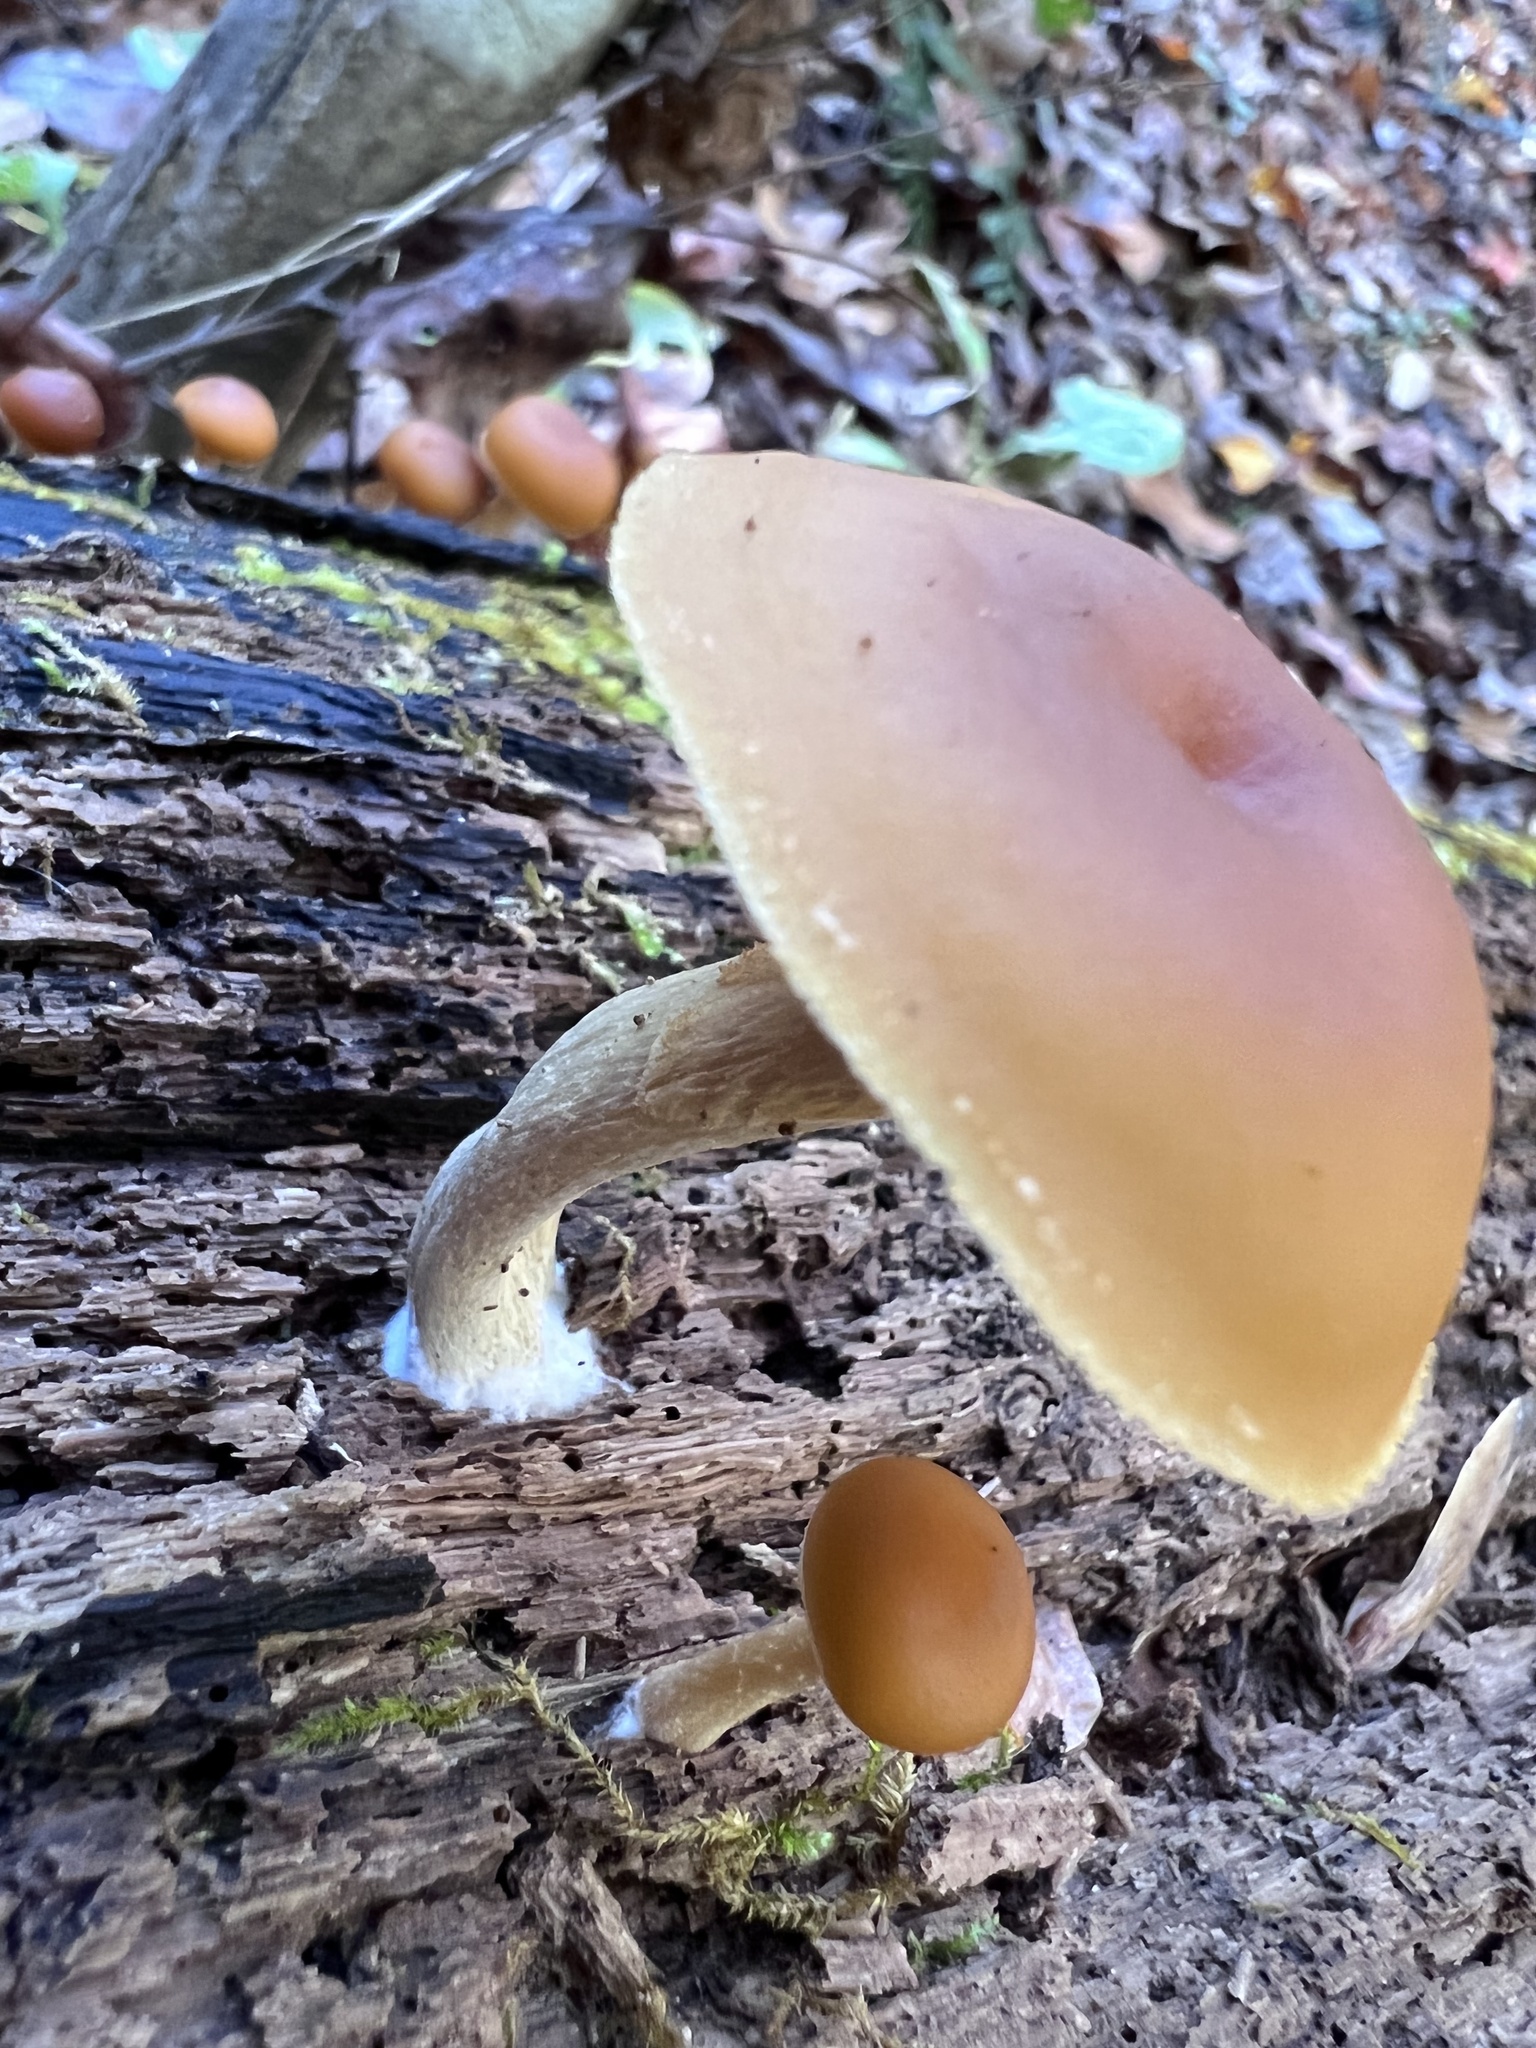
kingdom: Fungi
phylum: Basidiomycota
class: Agaricomycetes
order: Agaricales
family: Hymenogastraceae
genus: Galerina
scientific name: Galerina marginata
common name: Funeral bell
